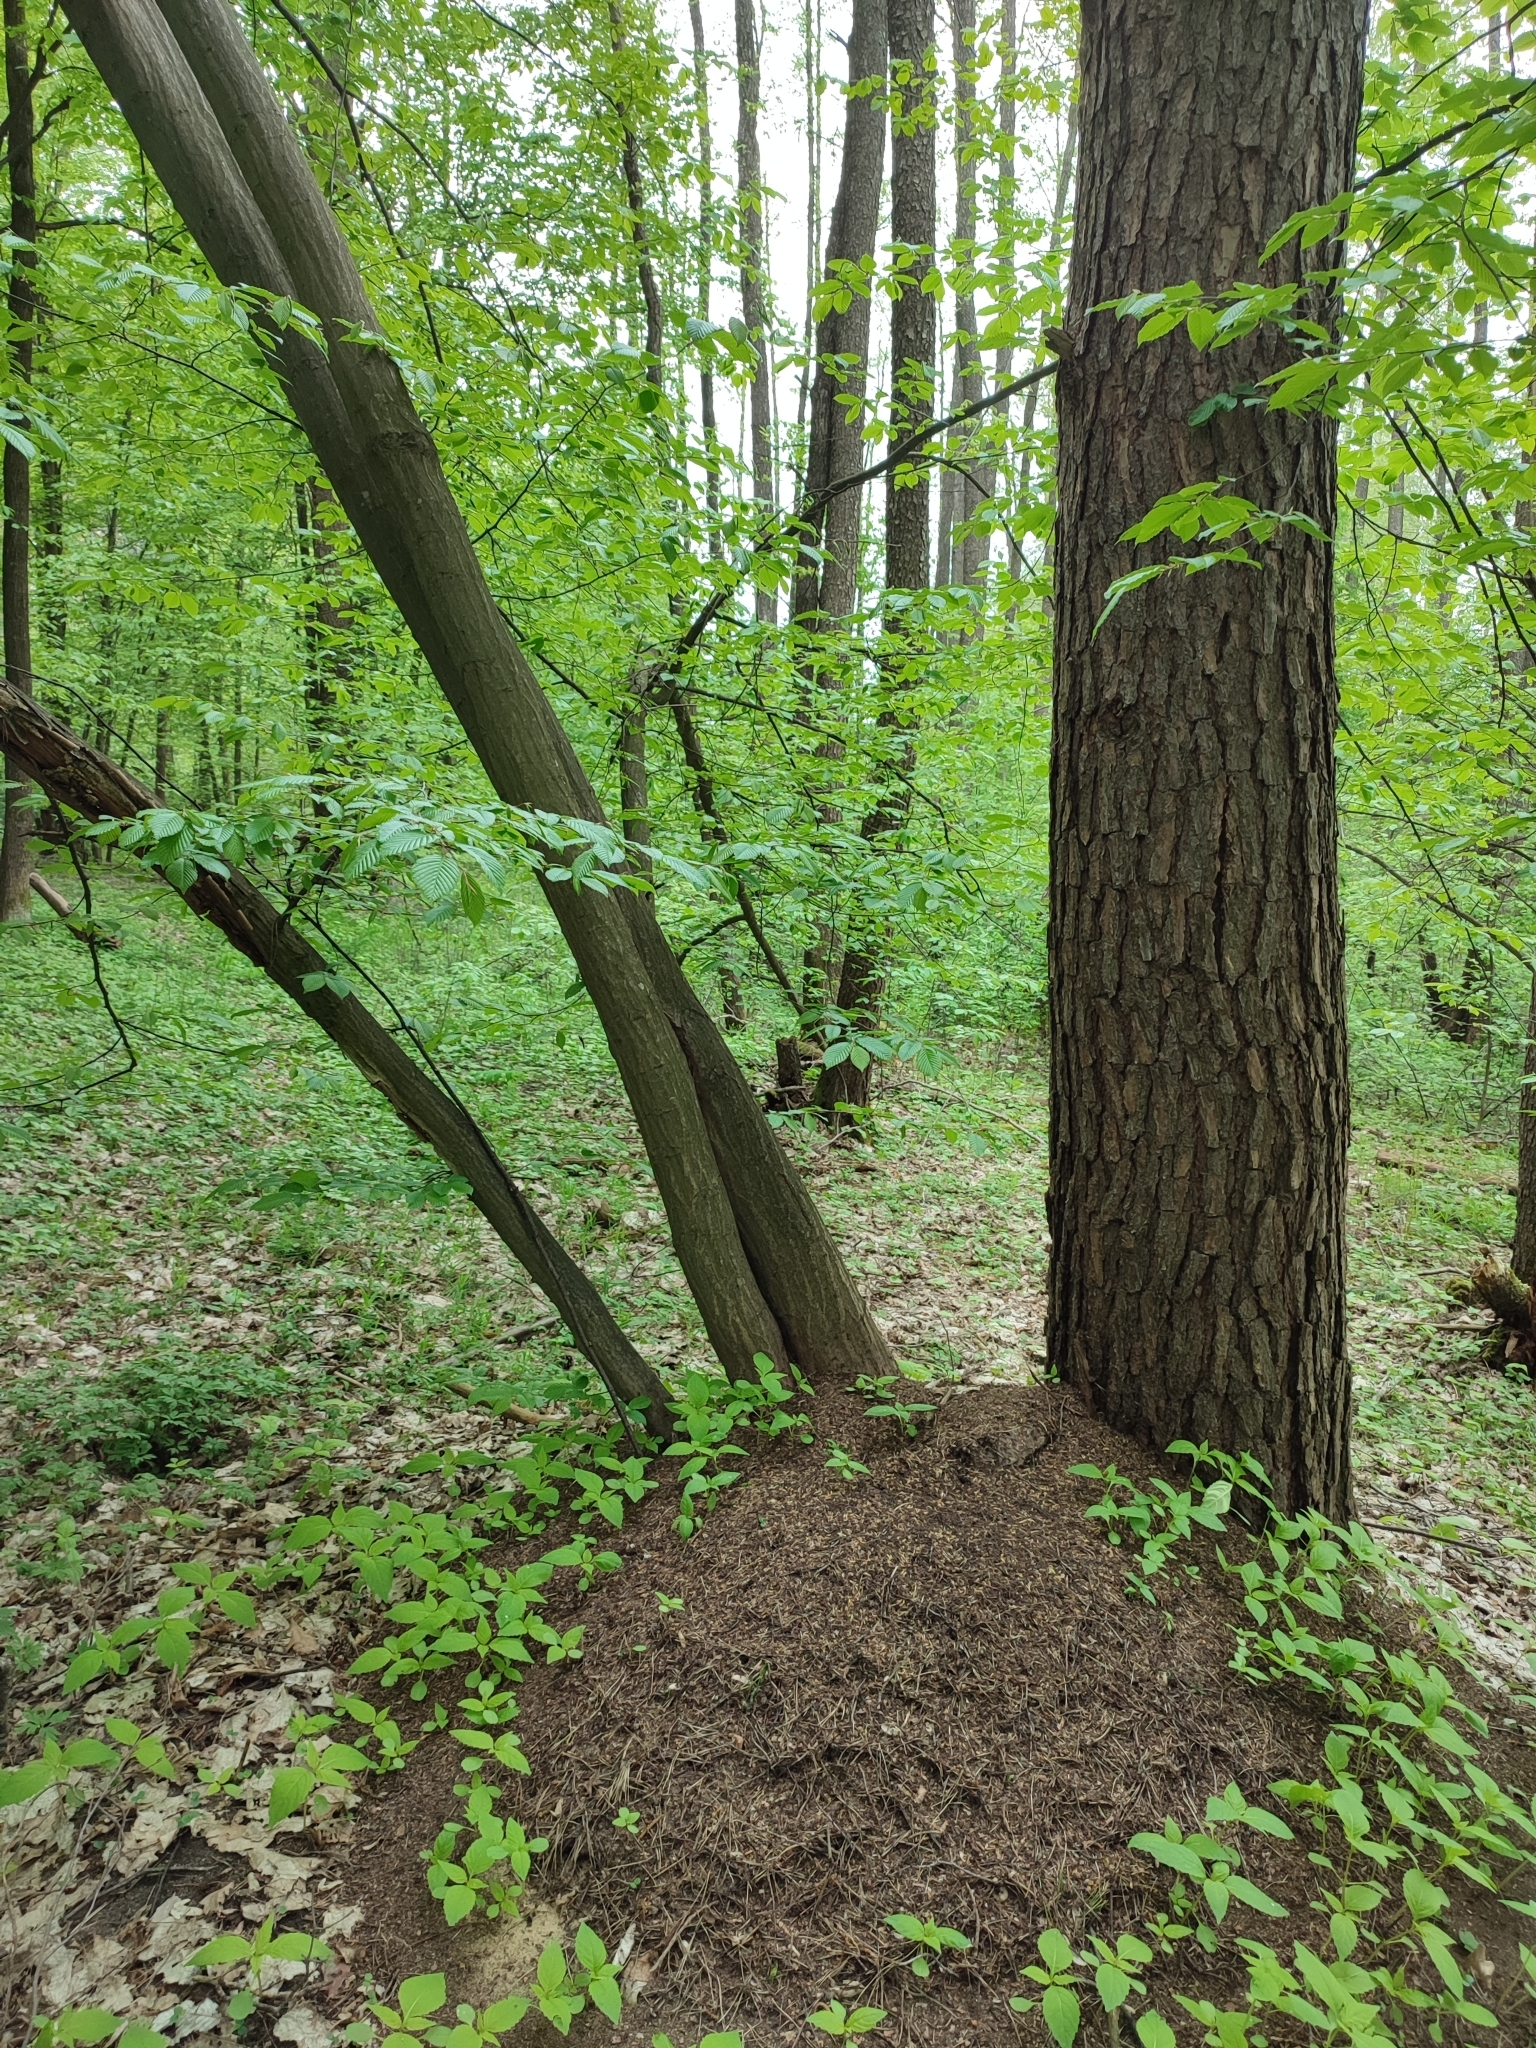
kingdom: Plantae
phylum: Tracheophyta
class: Magnoliopsida
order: Fagales
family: Betulaceae
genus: Carpinus
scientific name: Carpinus betulus
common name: Hornbeam
